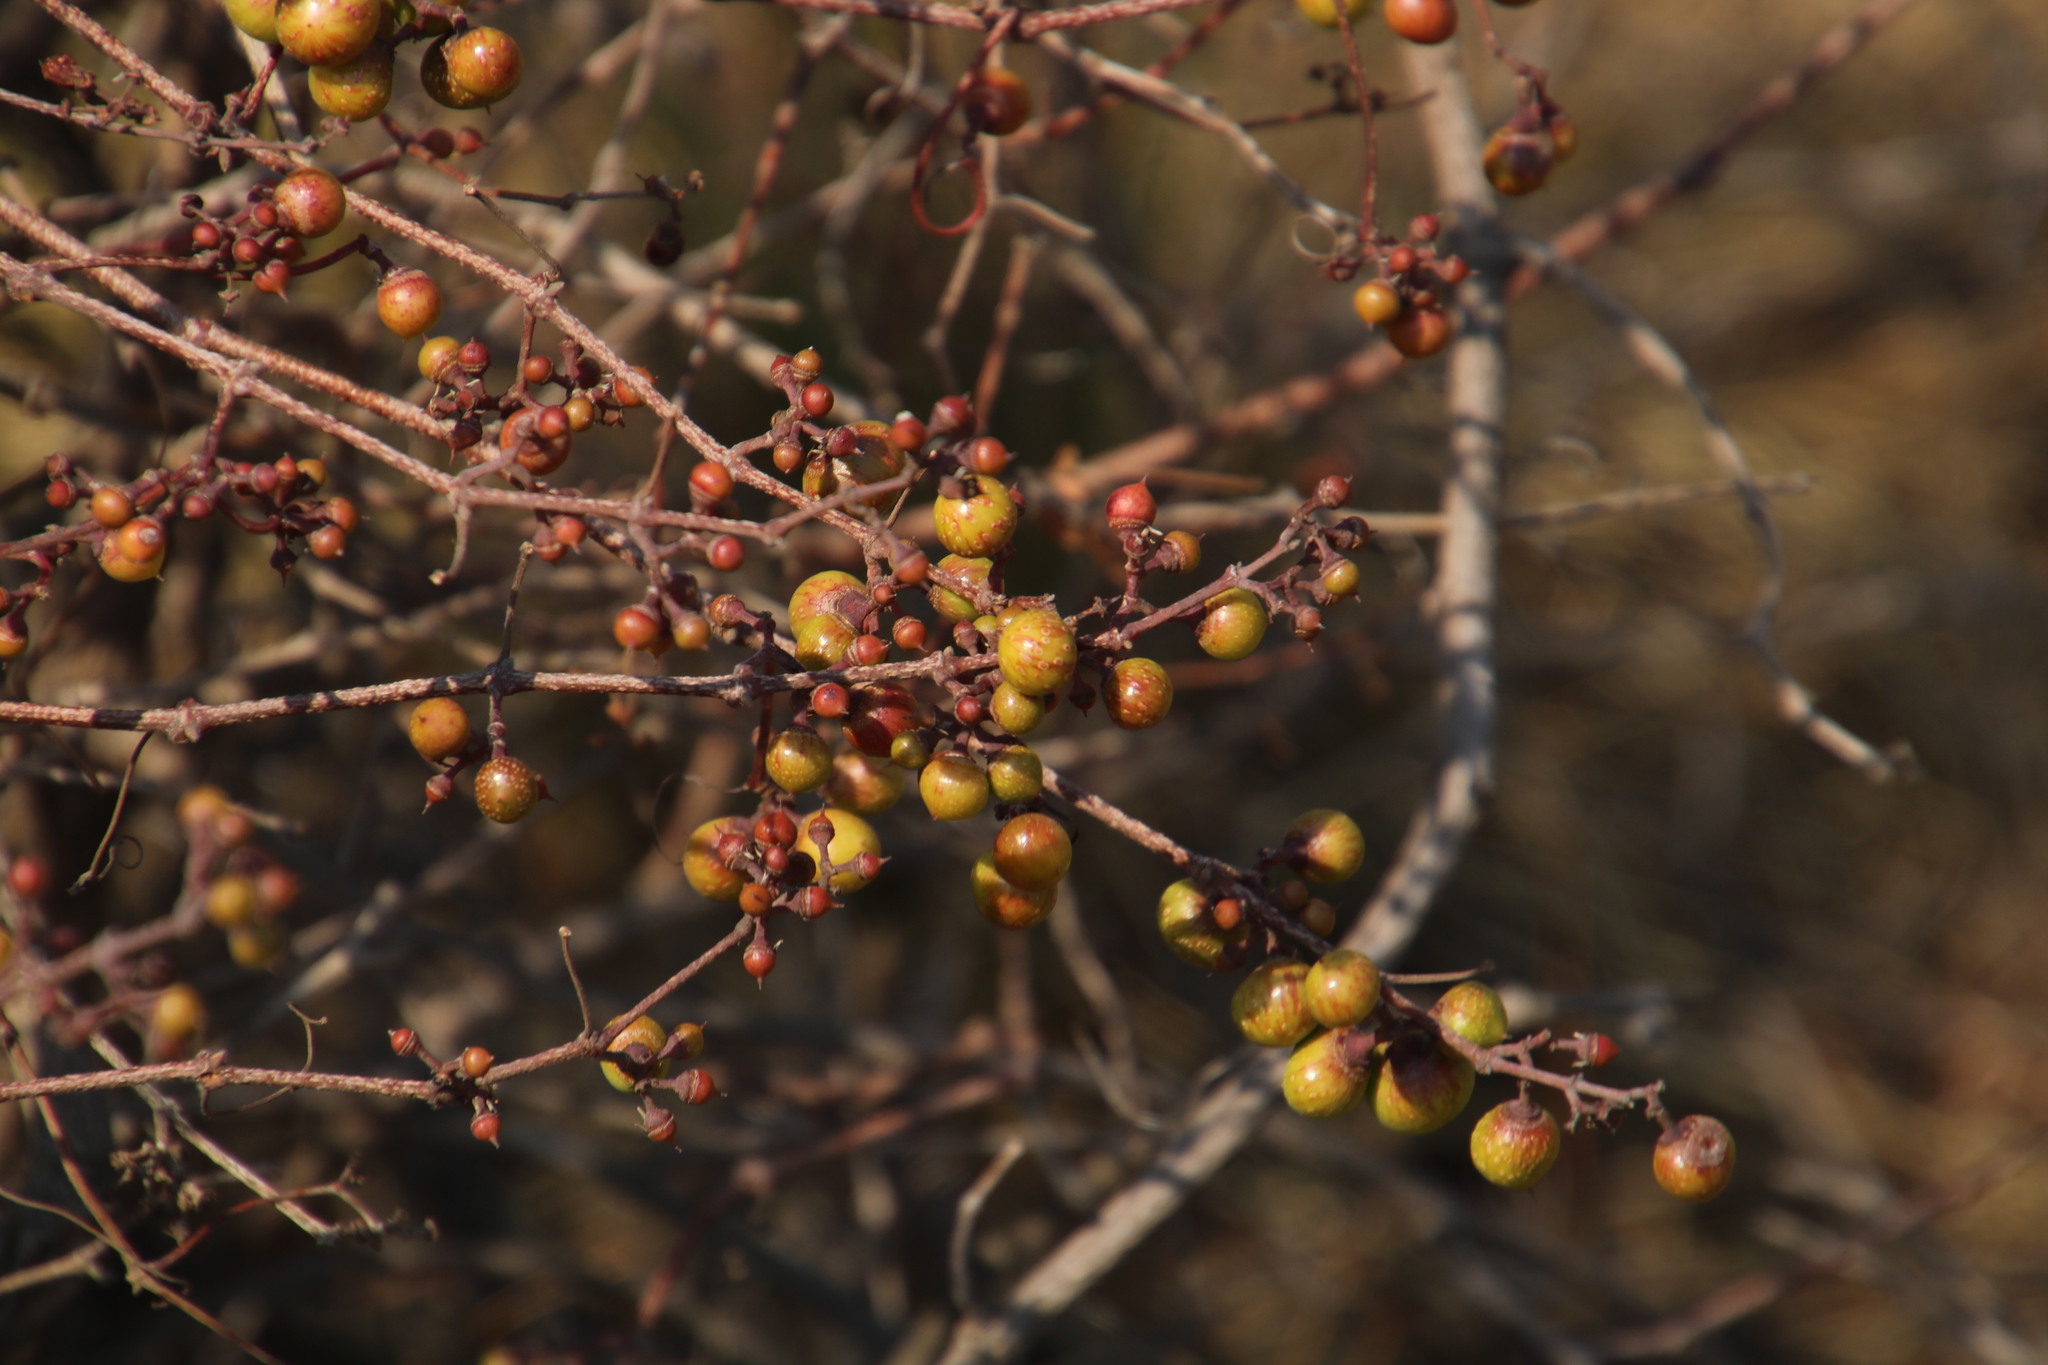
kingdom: Plantae
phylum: Tracheophyta
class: Magnoliopsida
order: Vitales
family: Vitaceae
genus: Rhoicissus
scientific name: Rhoicissus tridentata
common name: Common forest grape
